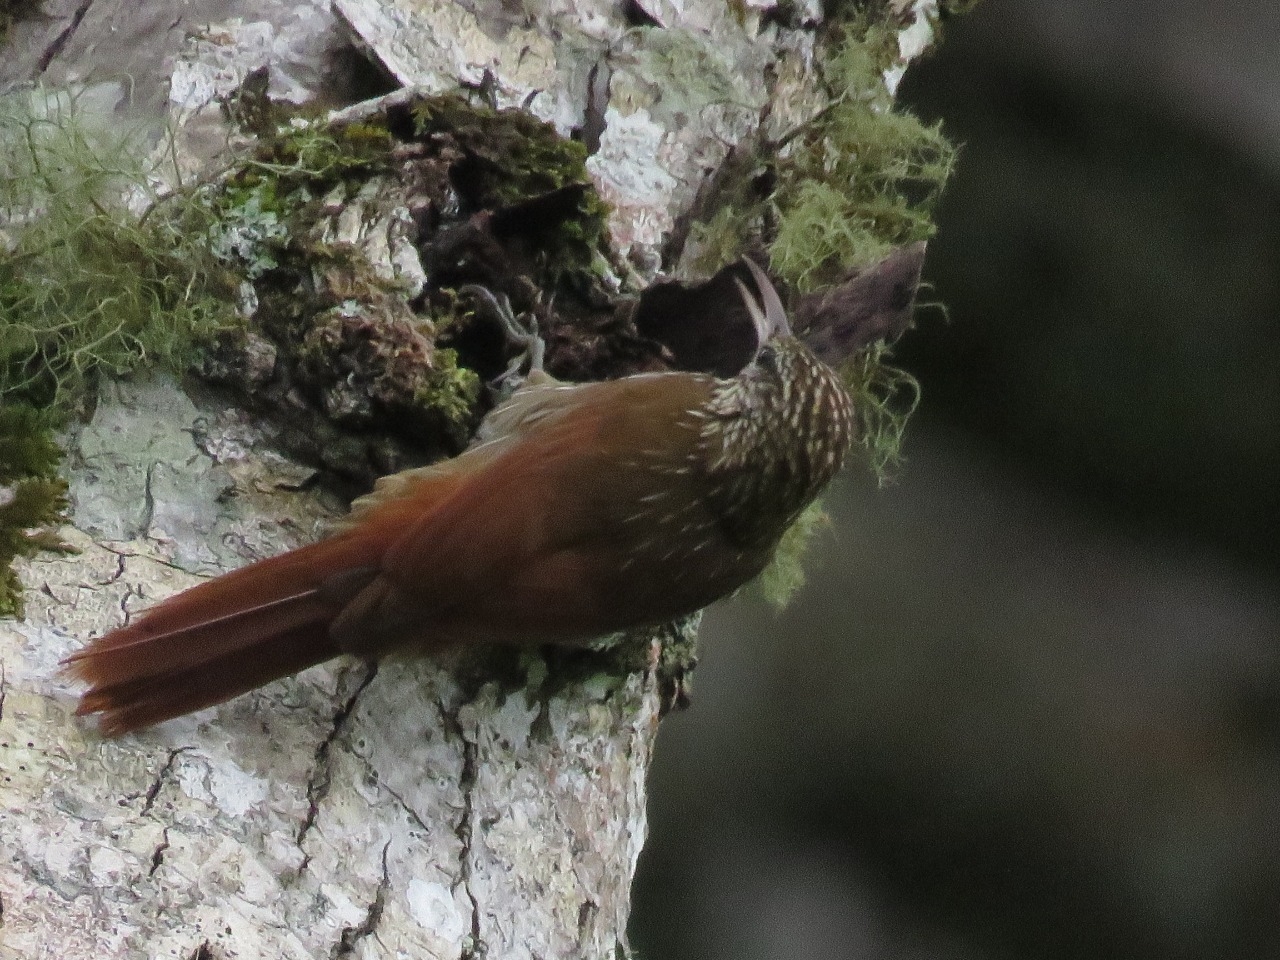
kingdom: Animalia
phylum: Chordata
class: Aves
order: Passeriformes
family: Furnariidae
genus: Lepidocolaptes
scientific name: Lepidocolaptes souleyetii
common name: Streak-headed woodcreeper
